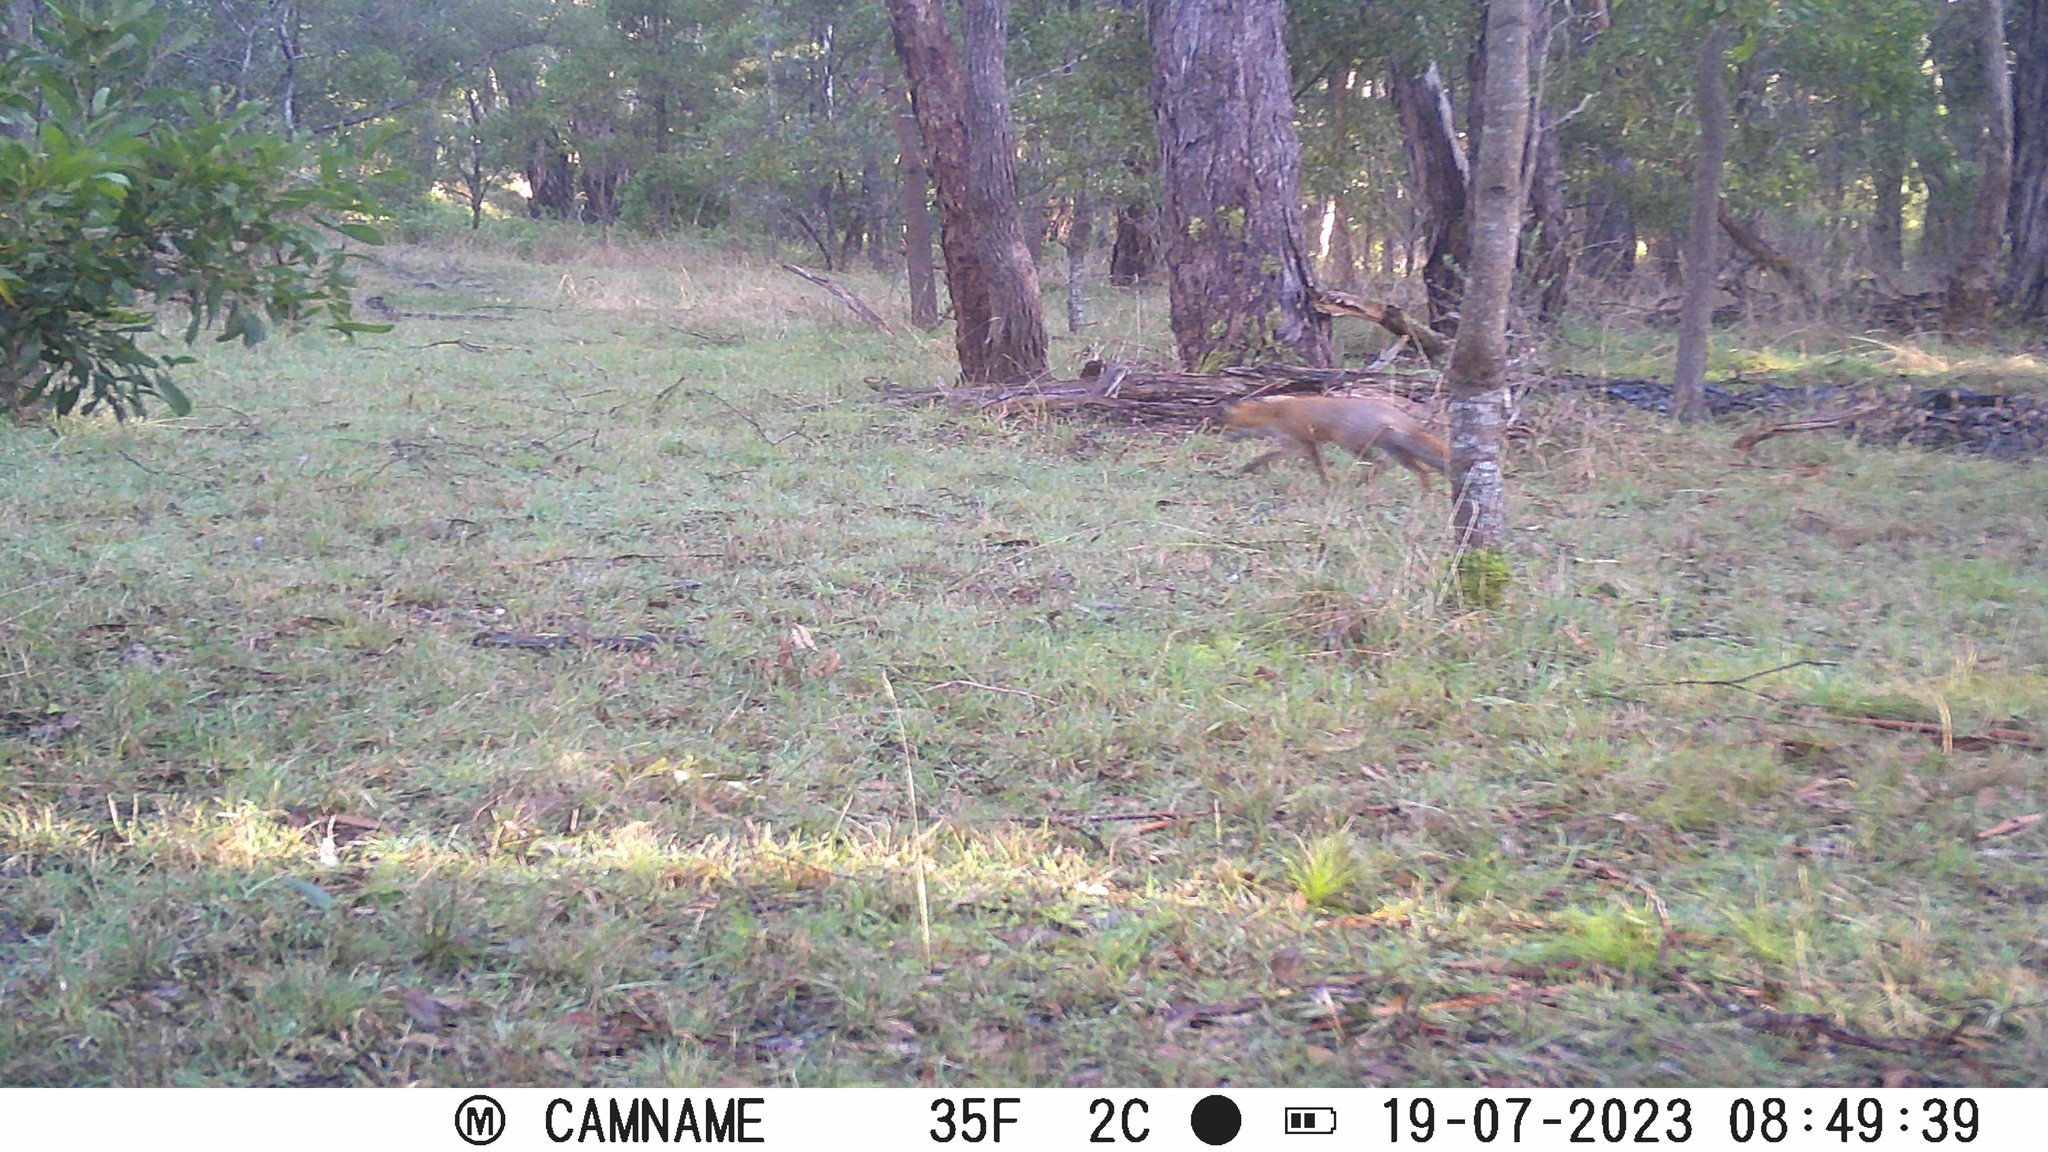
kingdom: Animalia
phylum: Chordata
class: Mammalia
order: Carnivora
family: Canidae
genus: Vulpes
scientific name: Vulpes vulpes
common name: Red fox
